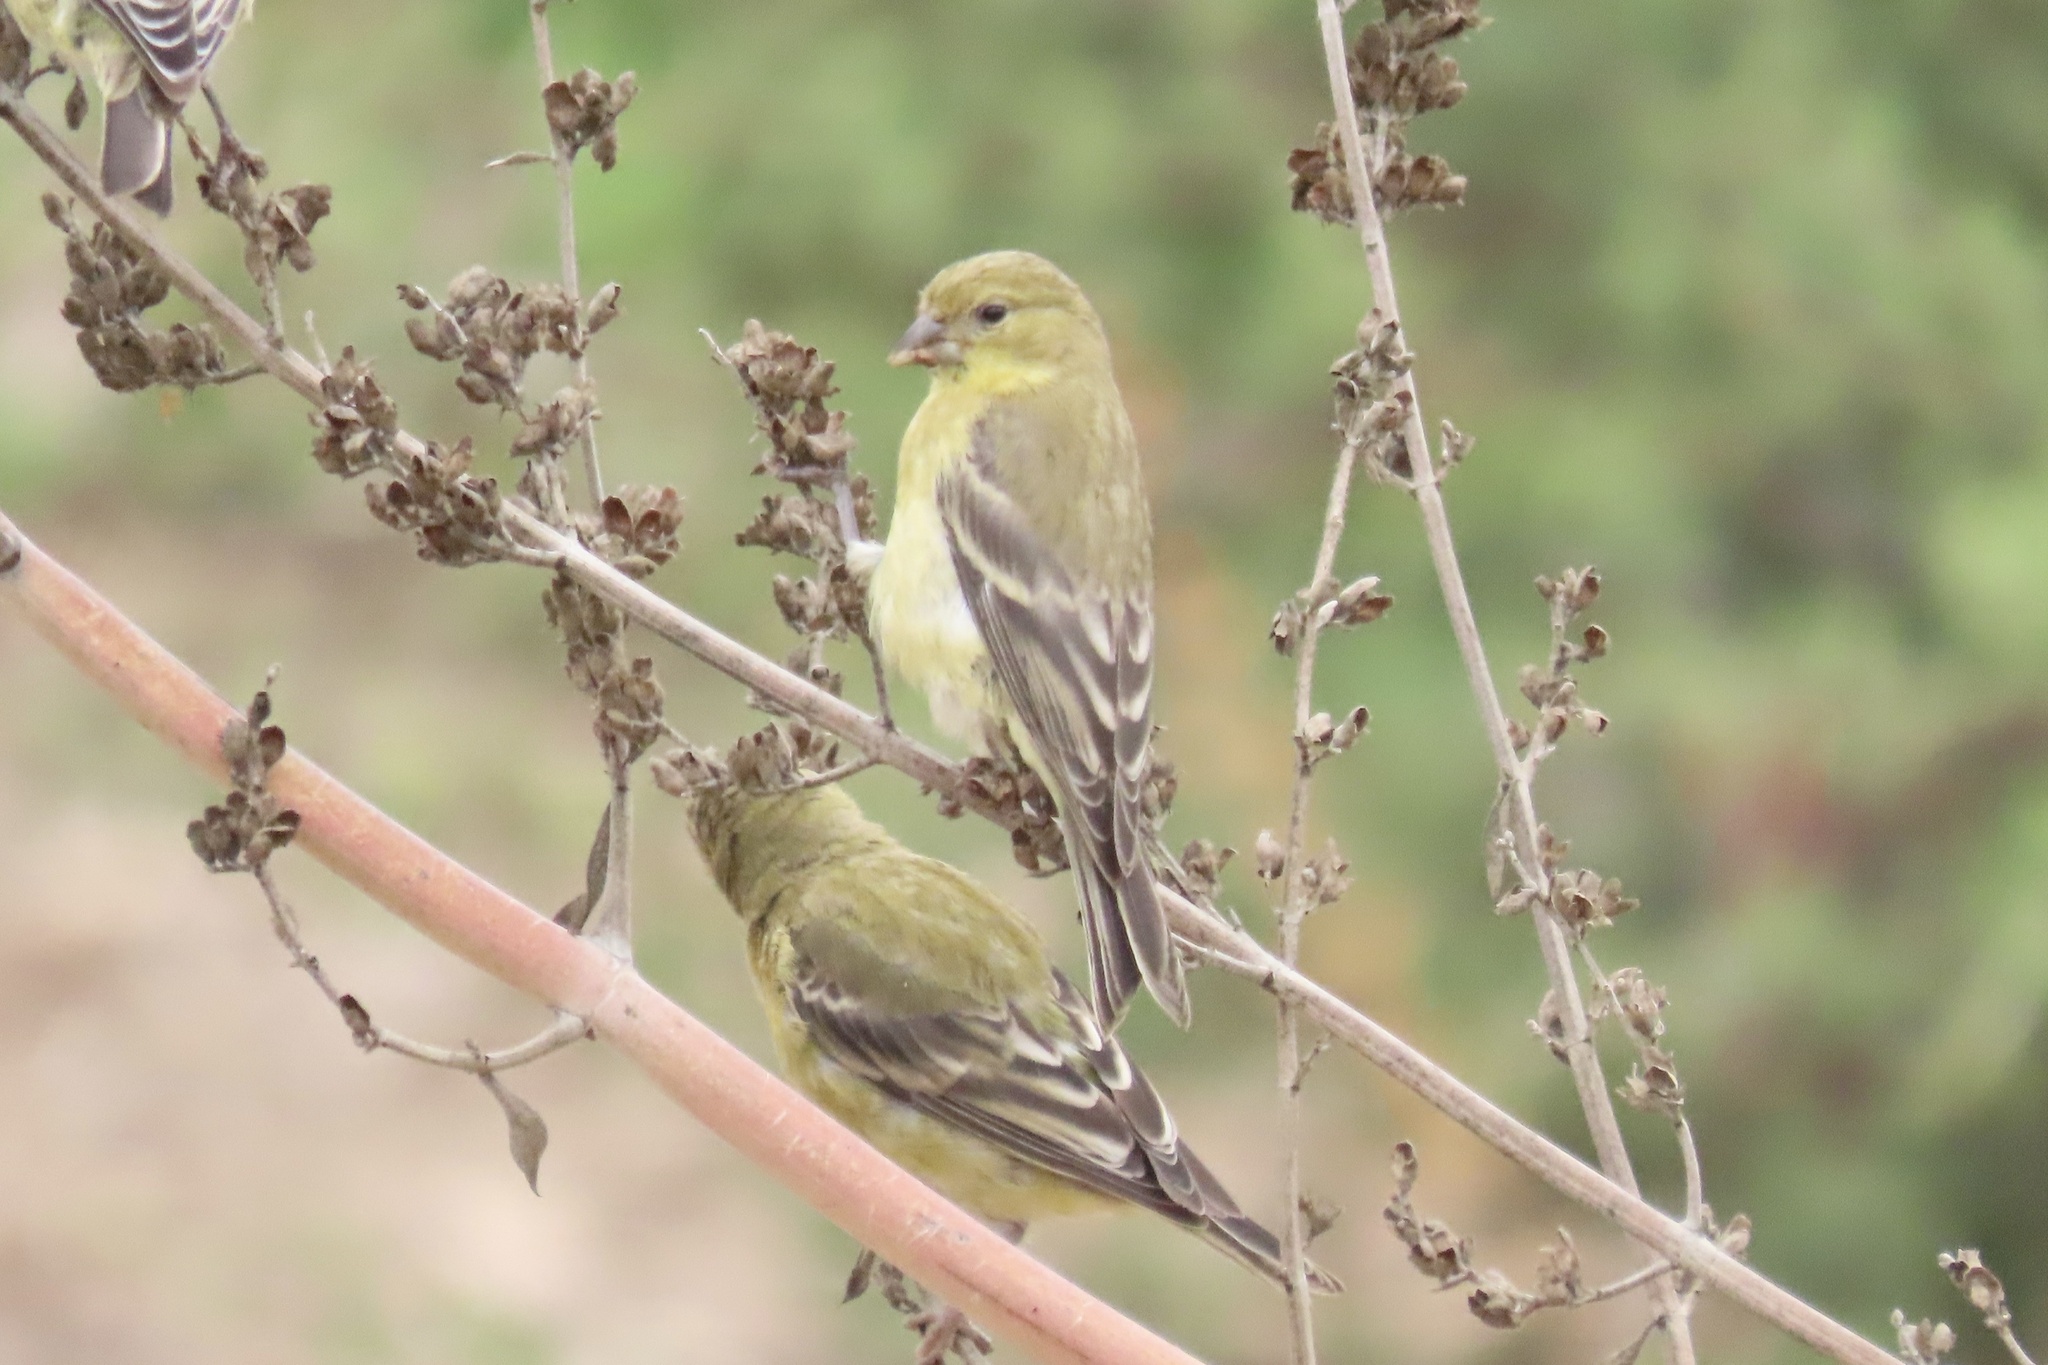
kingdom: Animalia
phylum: Chordata
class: Aves
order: Passeriformes
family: Fringillidae
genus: Spinus
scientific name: Spinus psaltria
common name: Lesser goldfinch
